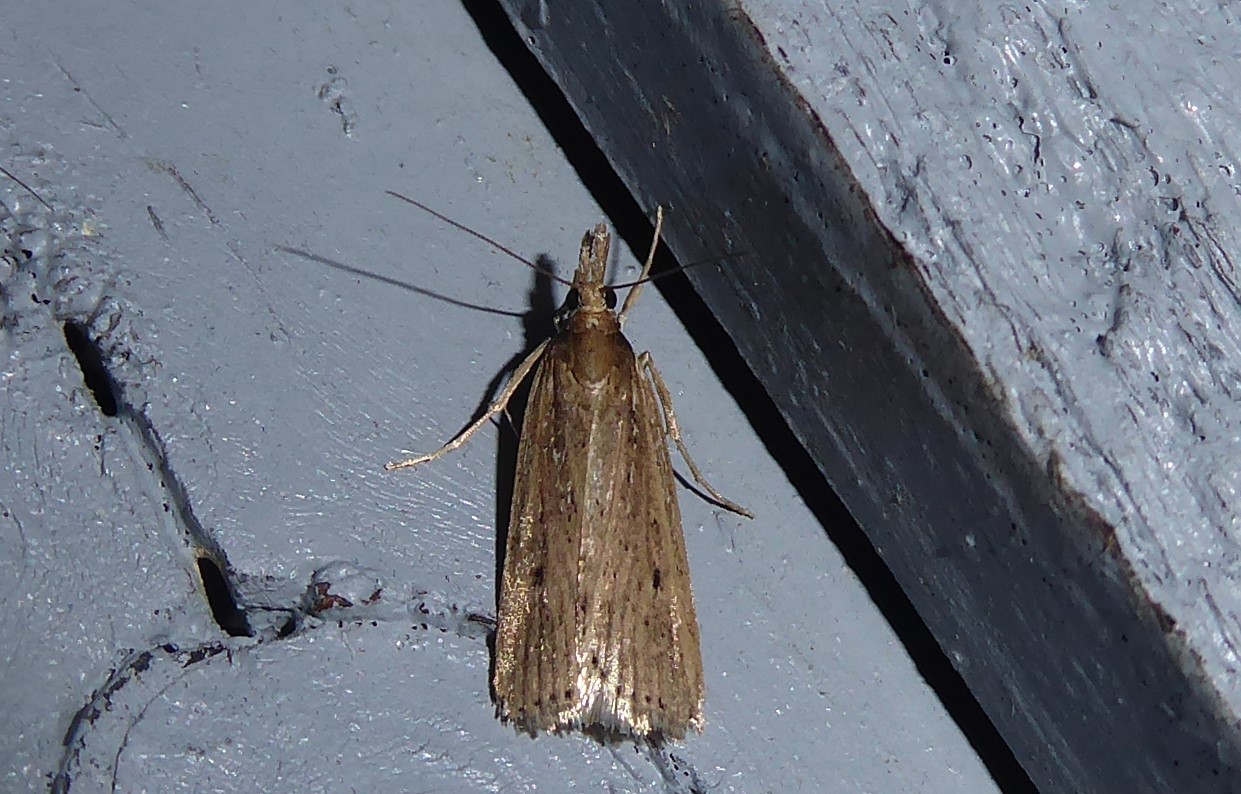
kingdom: Animalia
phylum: Arthropoda
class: Insecta
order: Lepidoptera
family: Crambidae
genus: Eudonia
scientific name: Eudonia sabulosella
